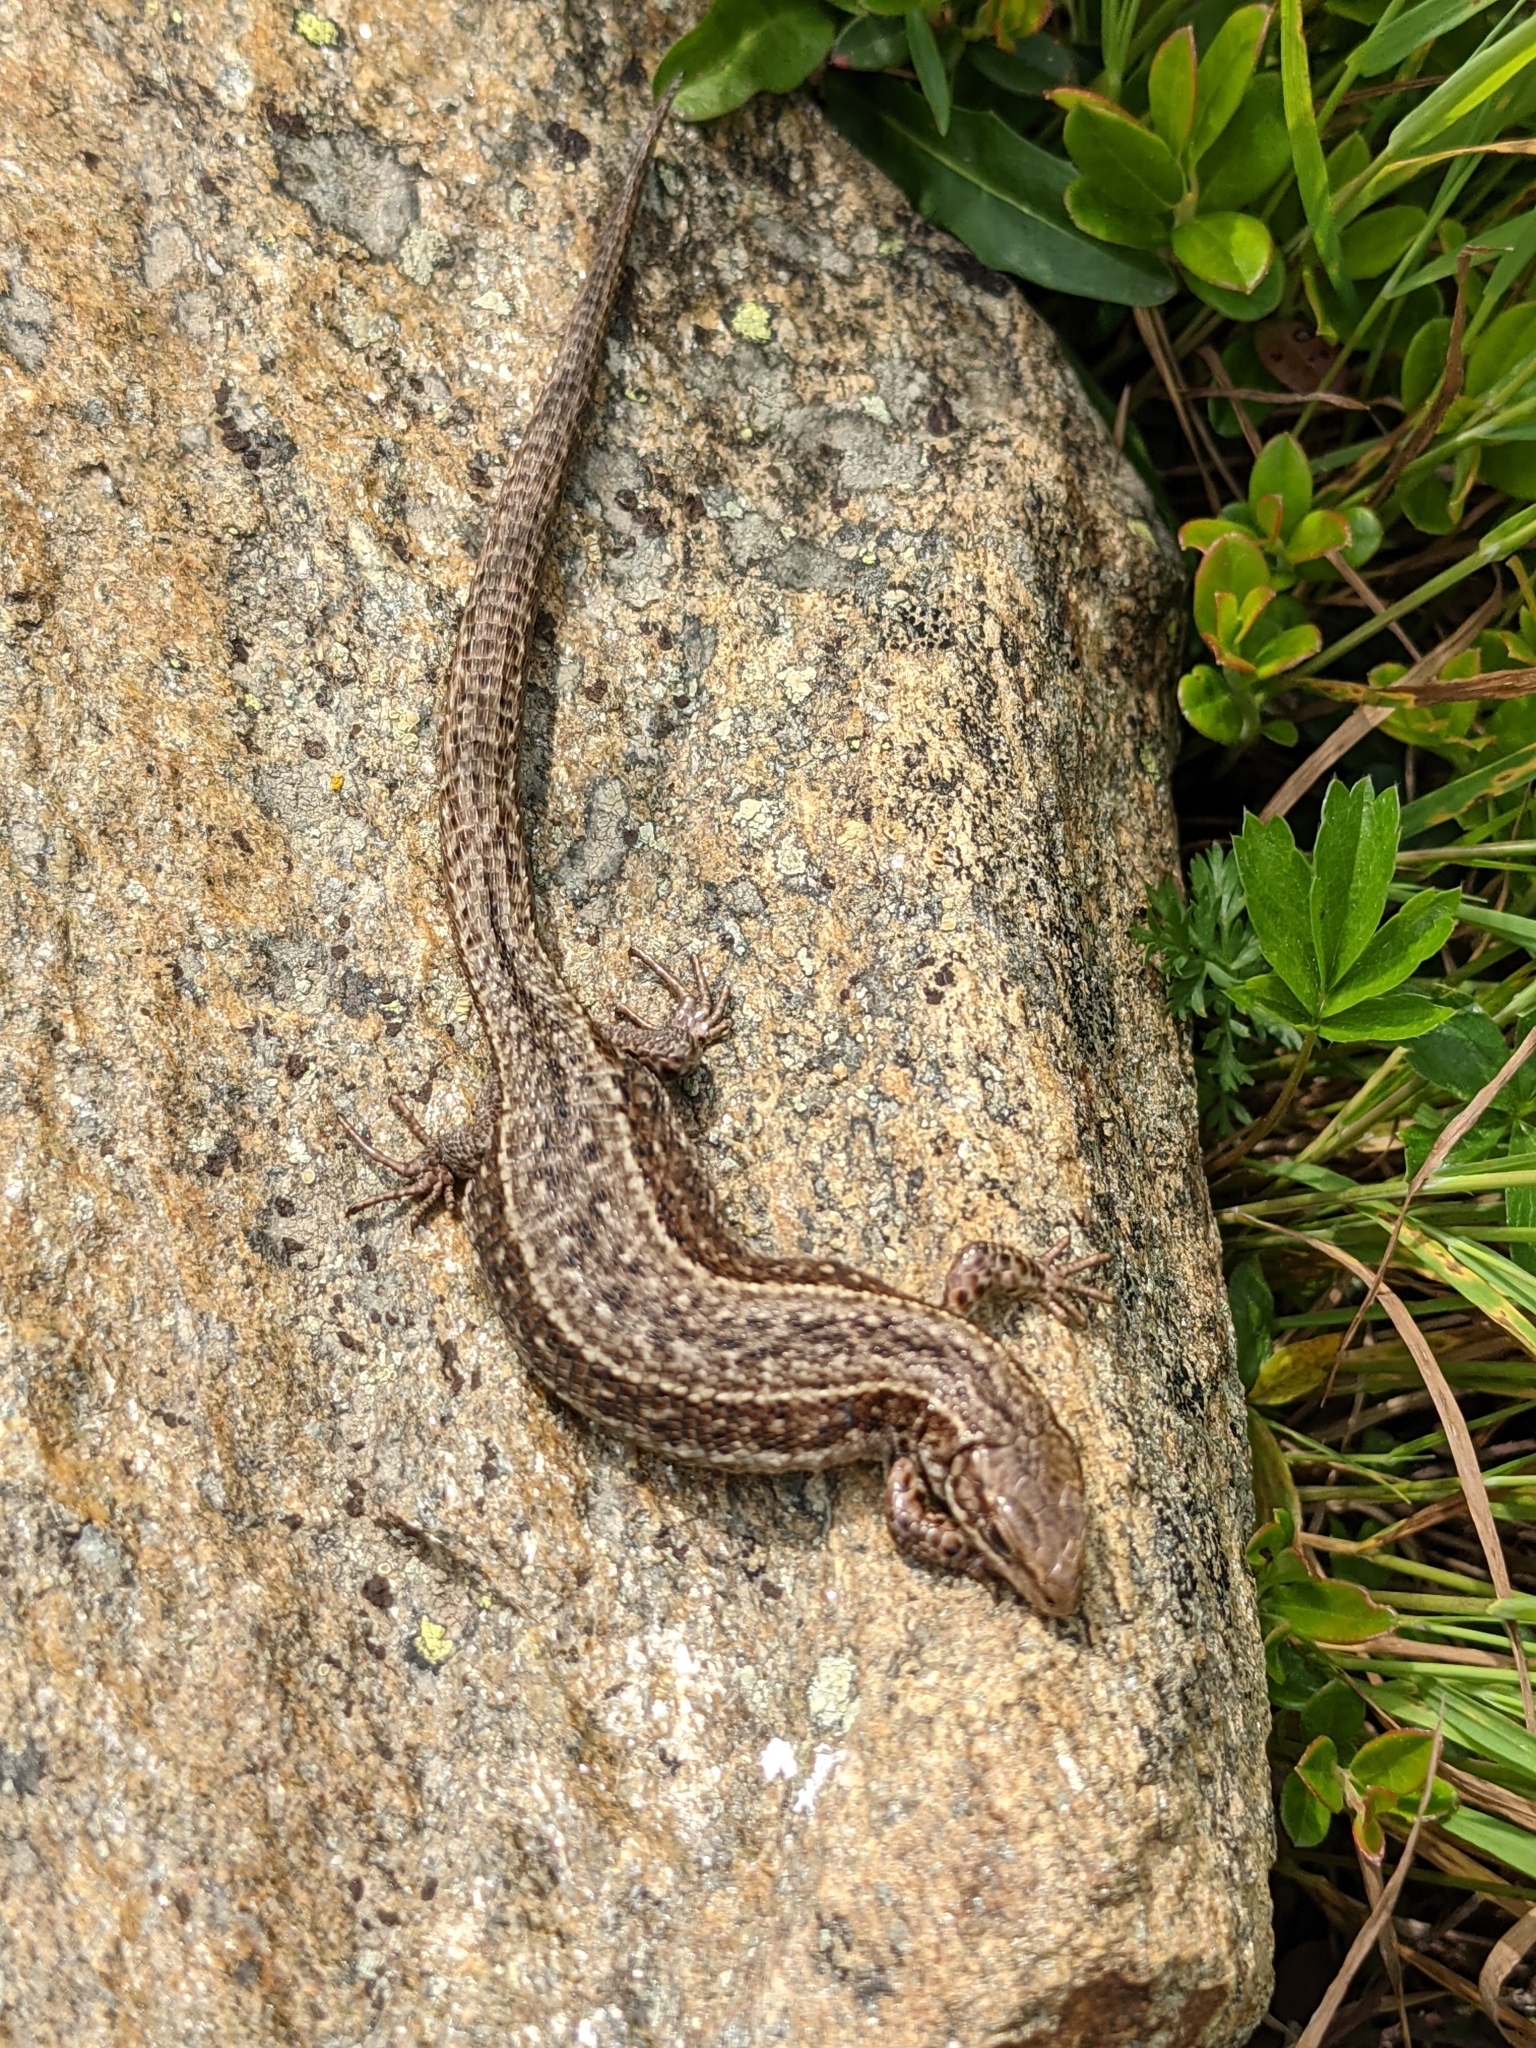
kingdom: Animalia
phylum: Chordata
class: Squamata
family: Lacertidae
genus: Zootoca
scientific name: Zootoca vivipara
